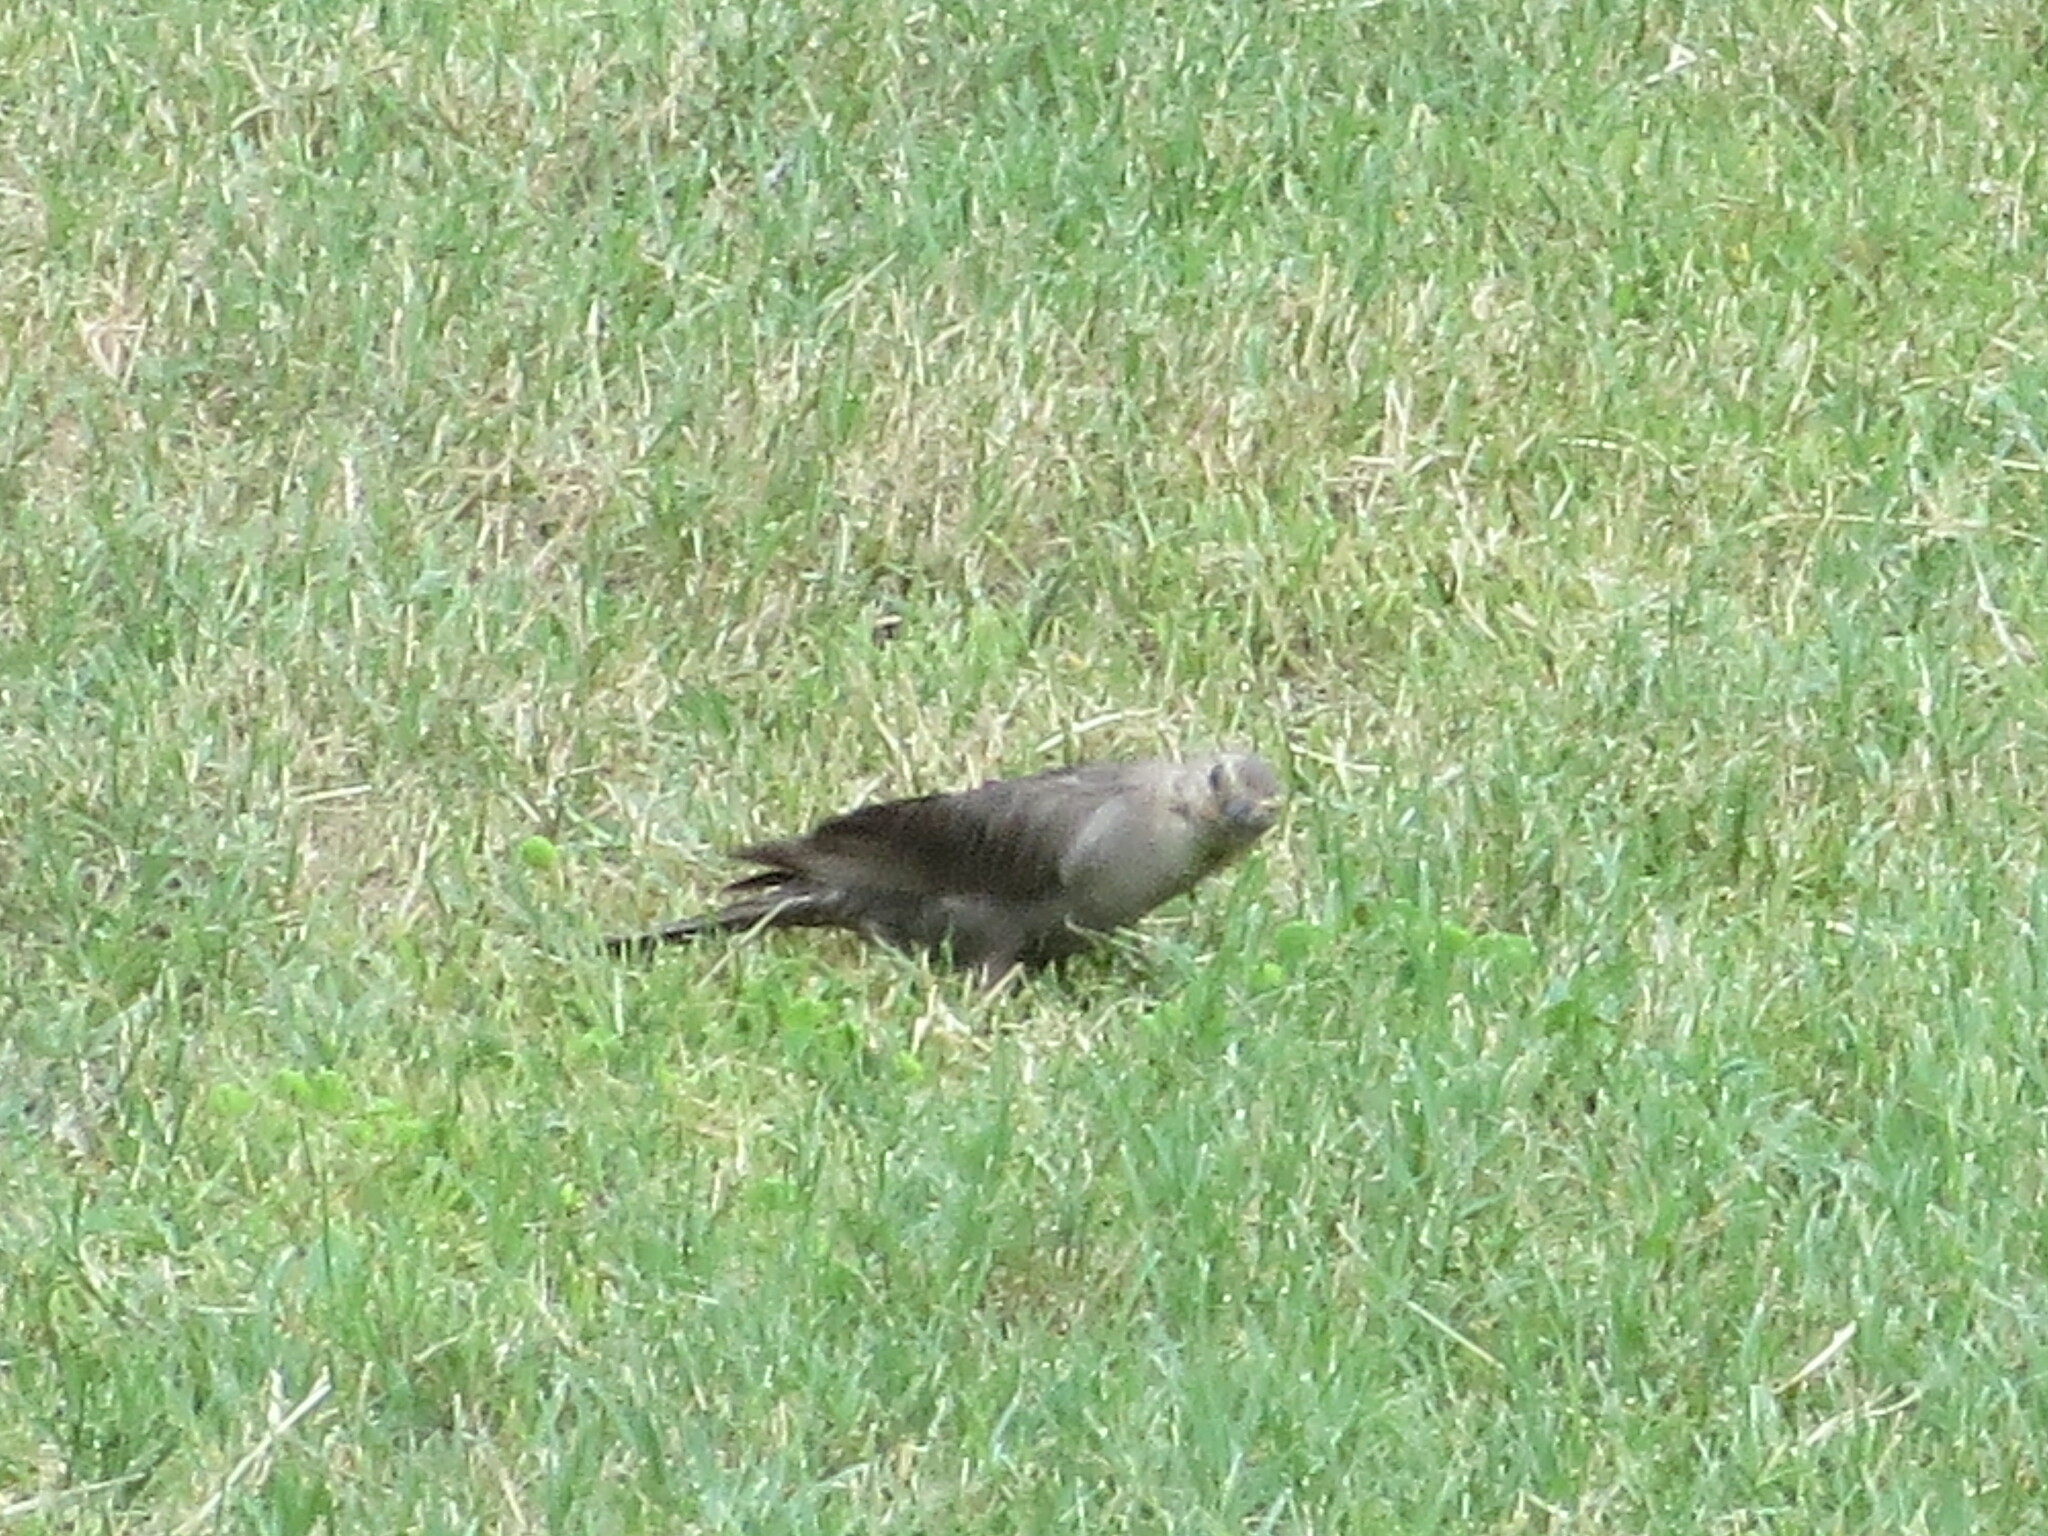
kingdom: Animalia
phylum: Chordata
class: Aves
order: Passeriformes
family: Icteridae
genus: Molothrus
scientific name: Molothrus ater
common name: Brown-headed cowbird
